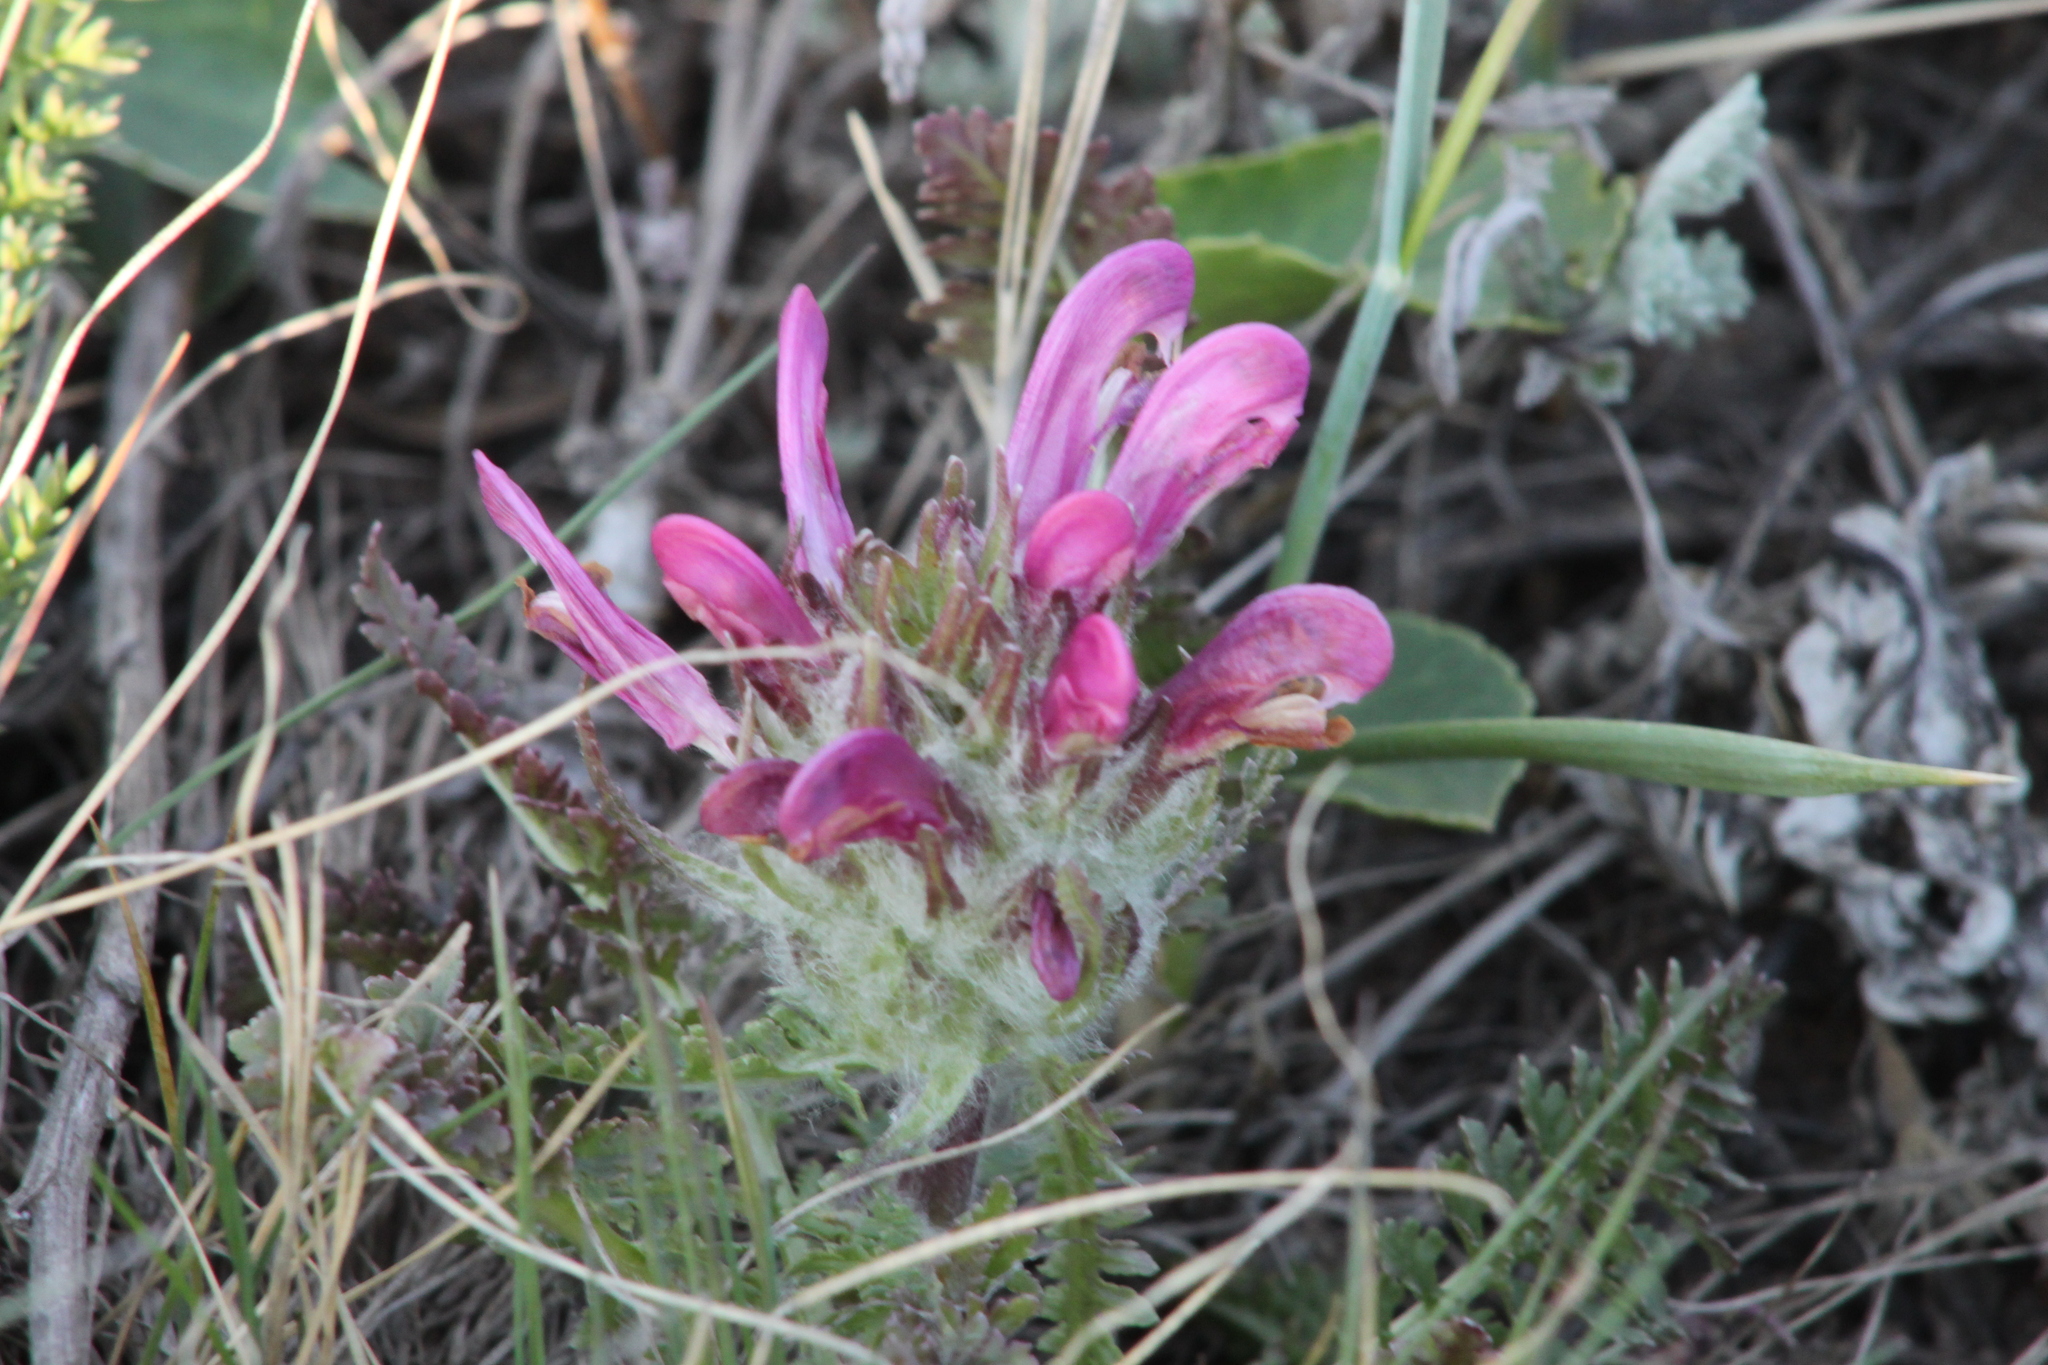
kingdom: Plantae
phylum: Tracheophyta
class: Magnoliopsida
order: Lamiales
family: Orobanchaceae
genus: Pedicularis
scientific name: Pedicularis dasystachys
